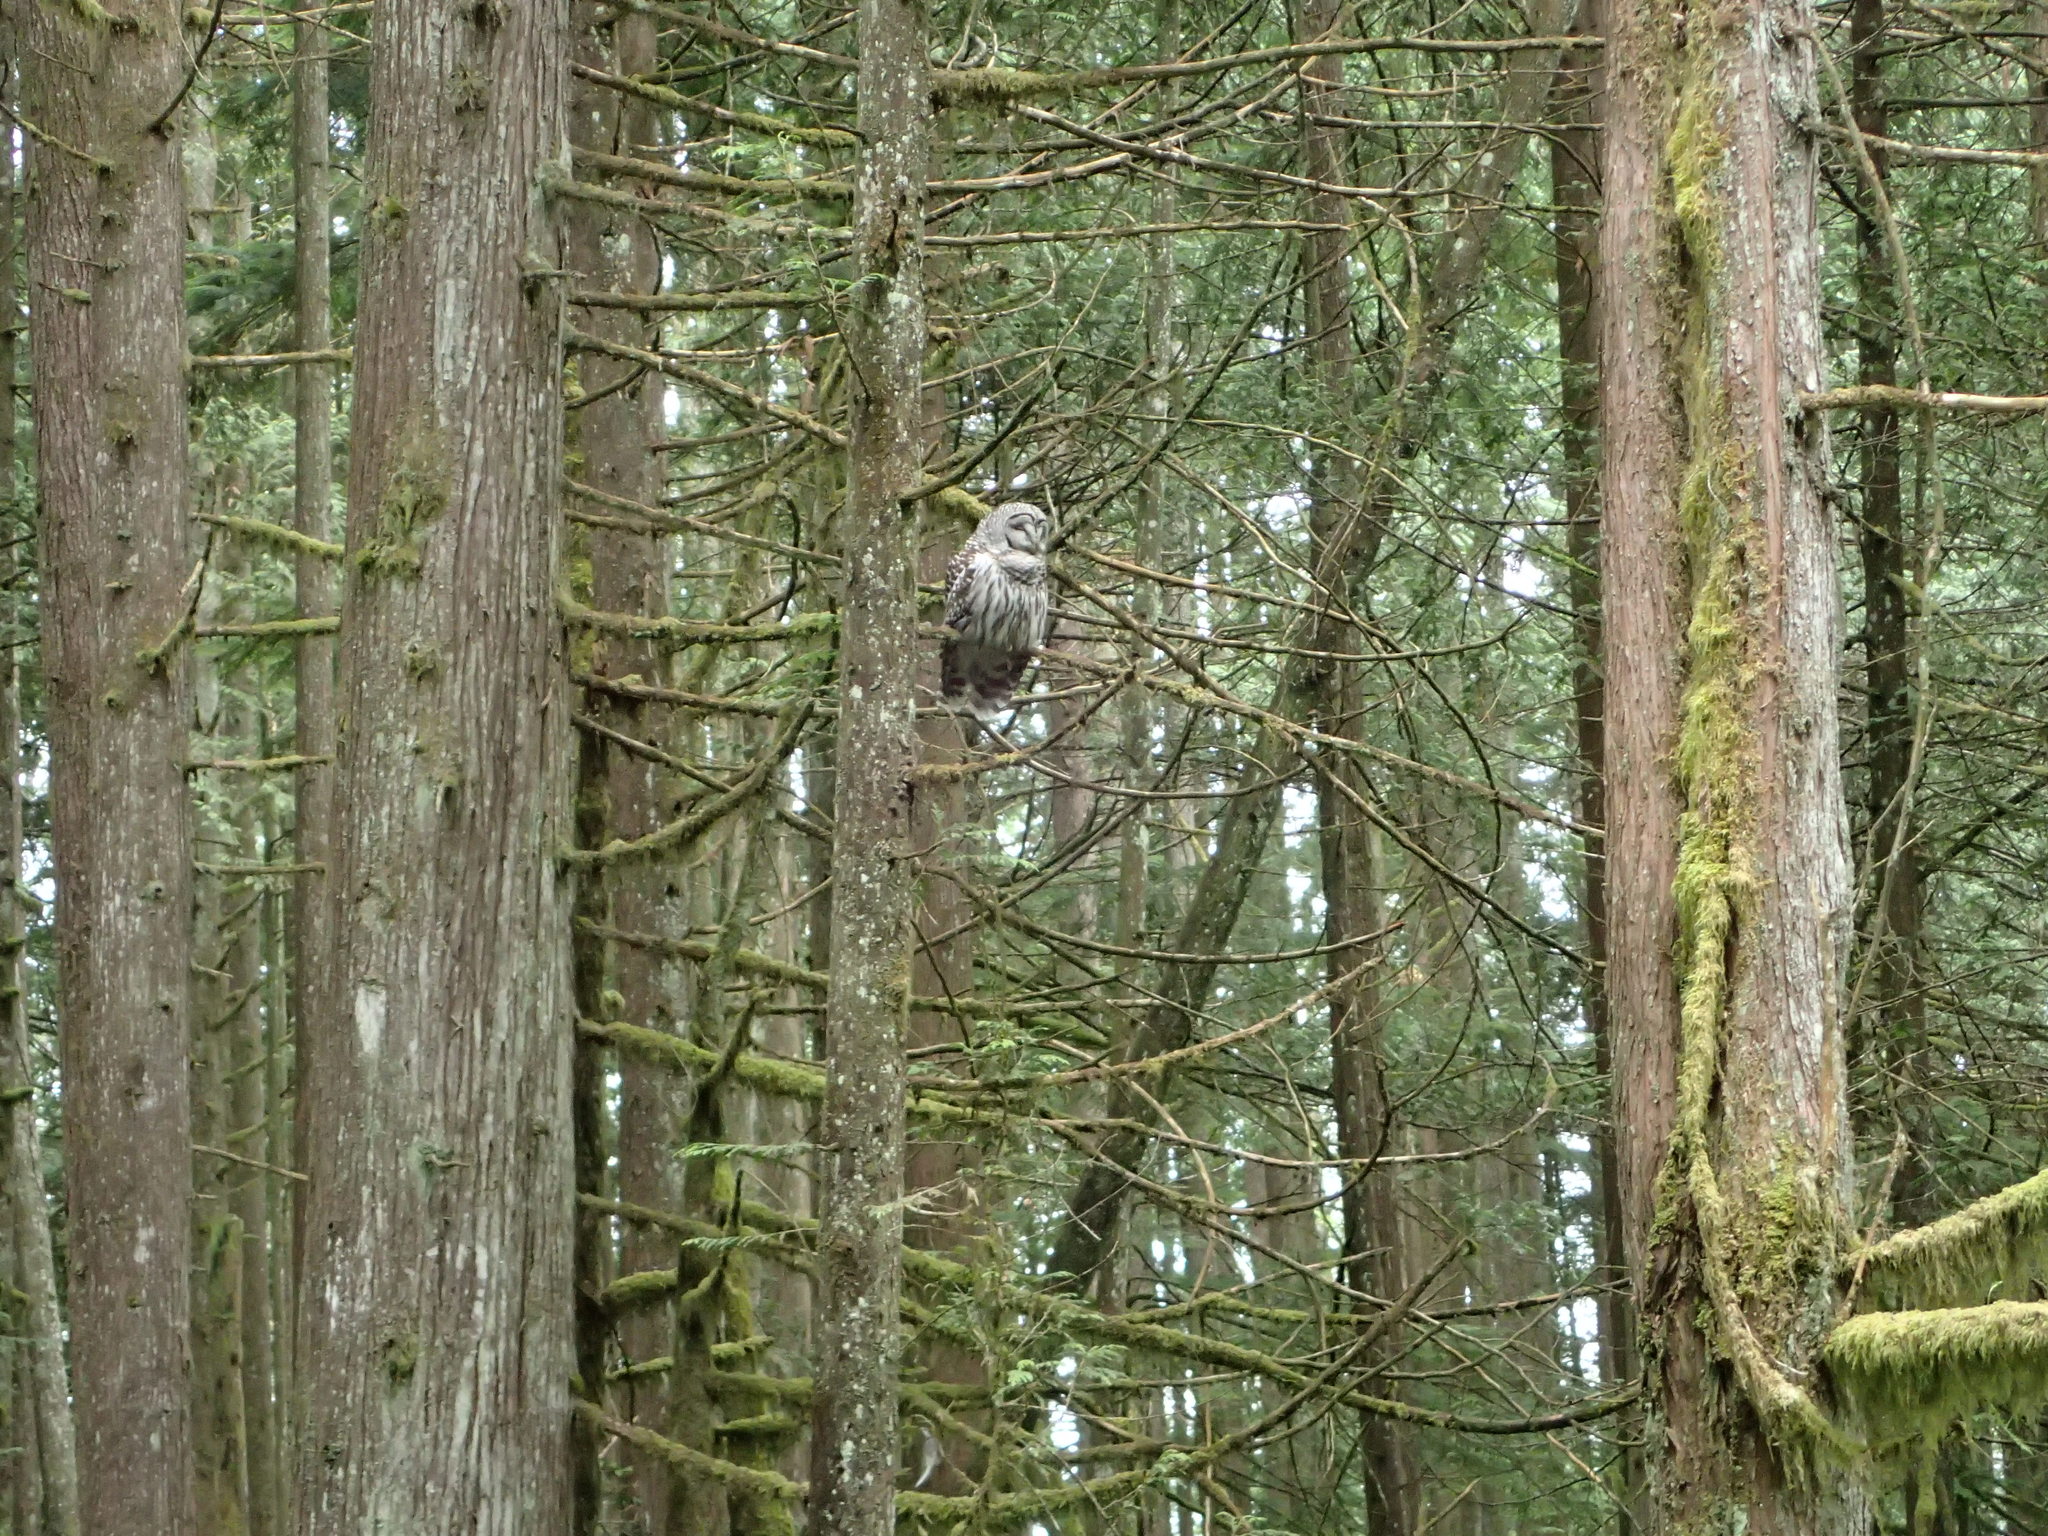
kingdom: Animalia
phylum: Chordata
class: Aves
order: Strigiformes
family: Strigidae
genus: Strix
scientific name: Strix varia
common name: Barred owl
